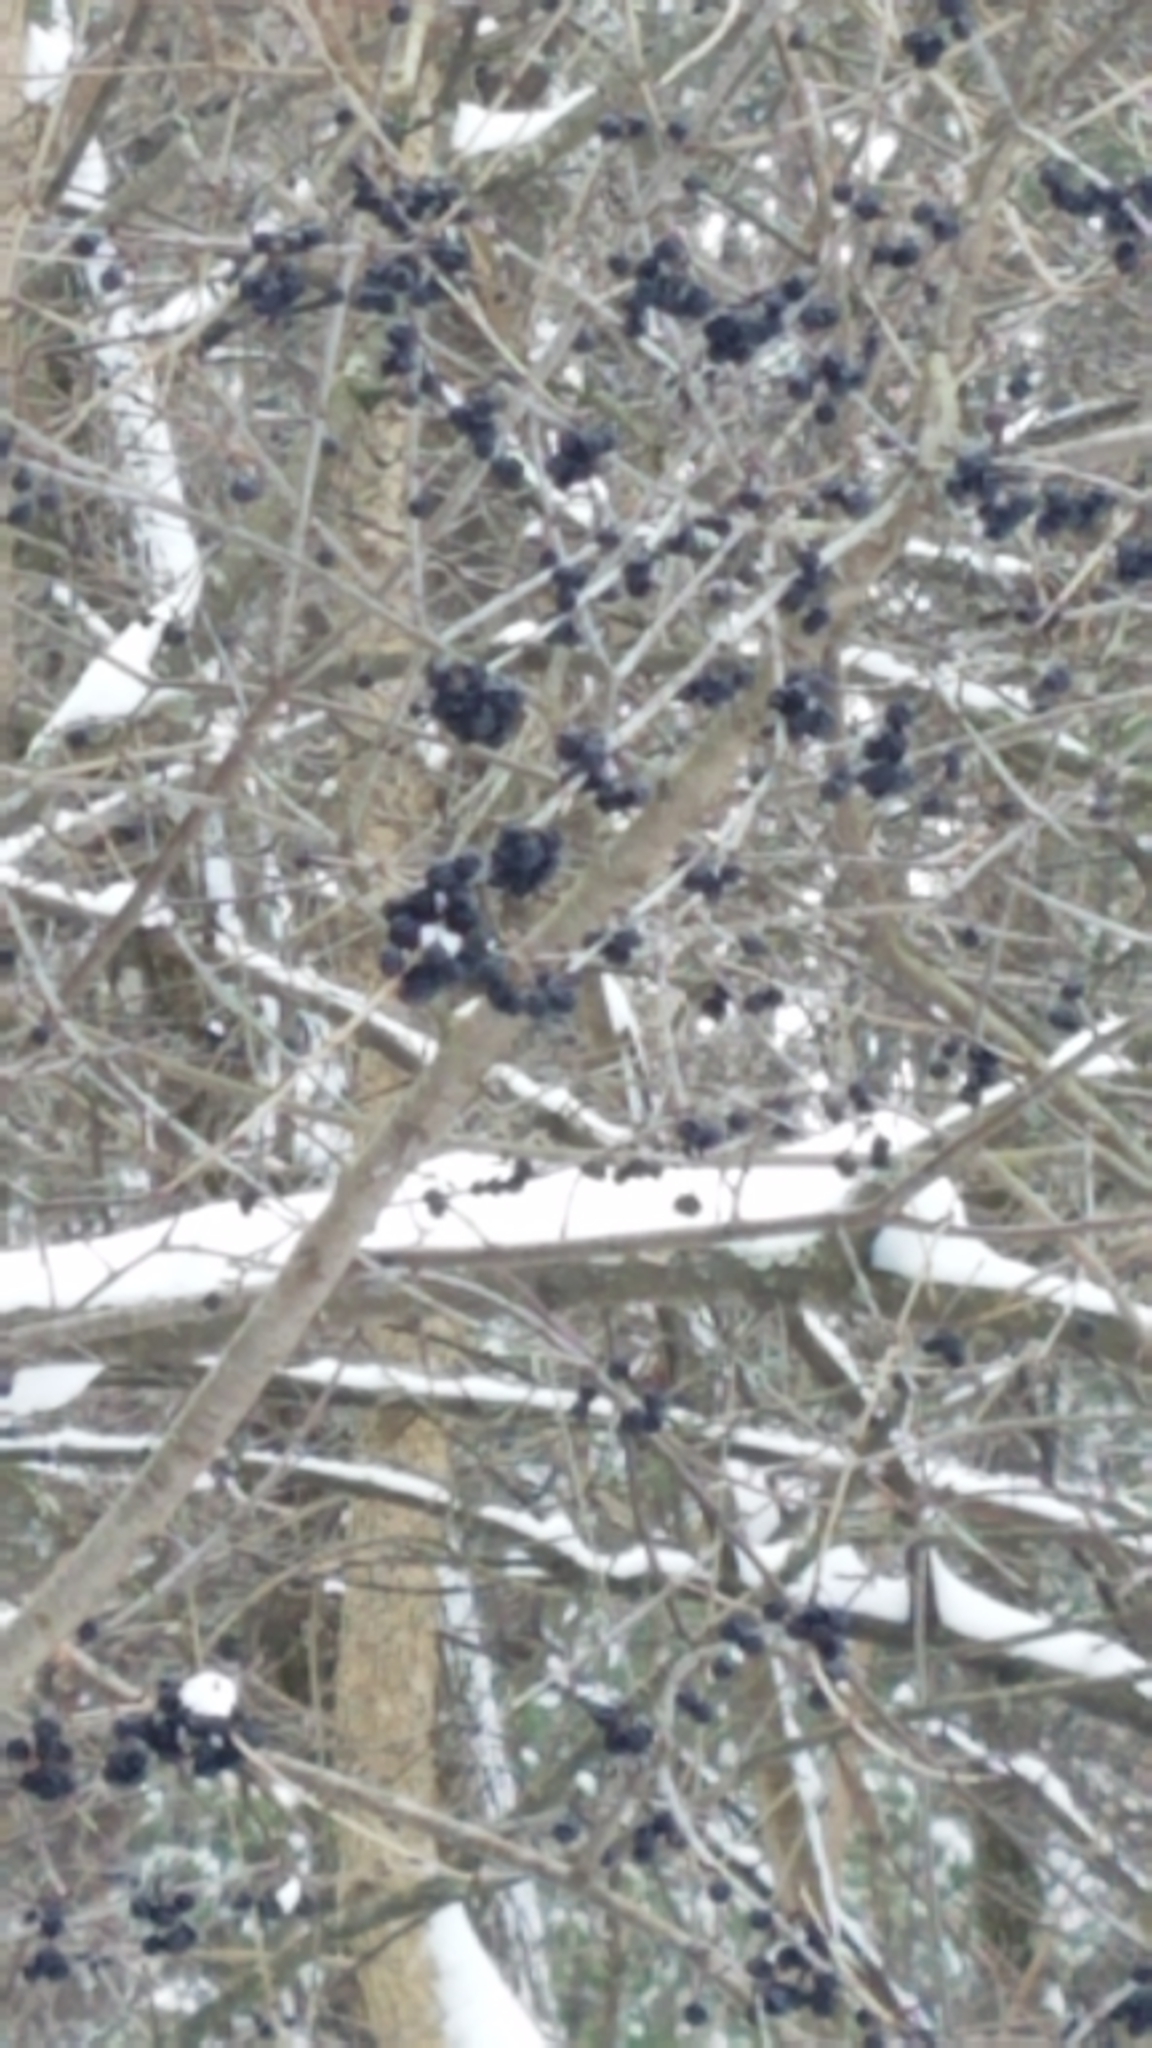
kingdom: Plantae
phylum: Tracheophyta
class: Magnoliopsida
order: Rosales
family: Rhamnaceae
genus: Rhamnus
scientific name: Rhamnus cathartica
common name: Common buckthorn
